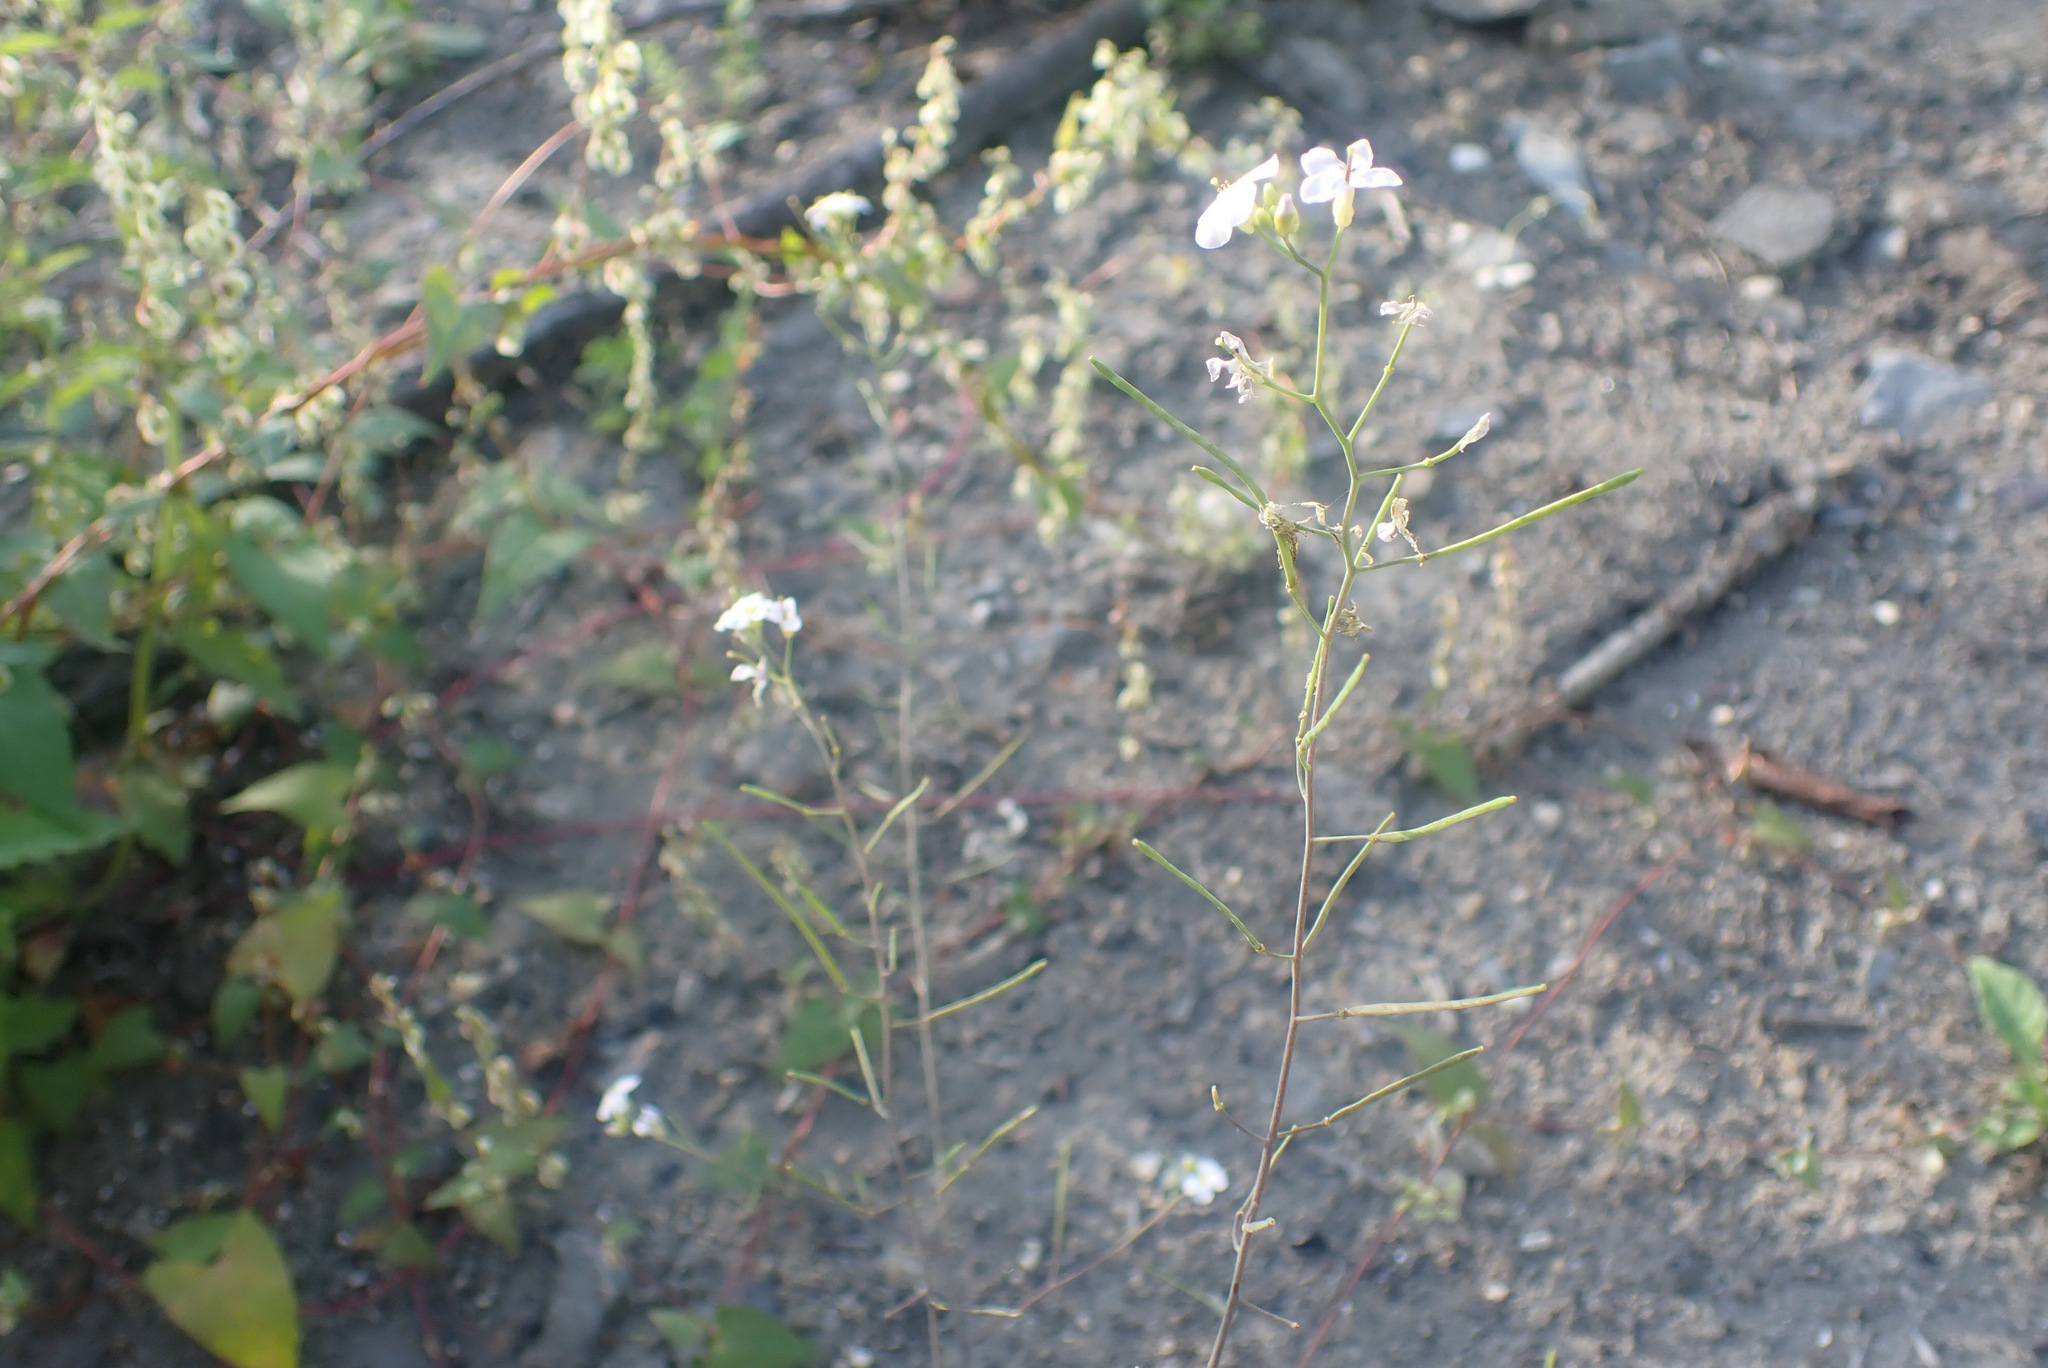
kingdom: Plantae
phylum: Tracheophyta
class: Magnoliopsida
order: Brassicales
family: Brassicaceae
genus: Arabidopsis
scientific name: Arabidopsis arenosa
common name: Sand rock-cress
